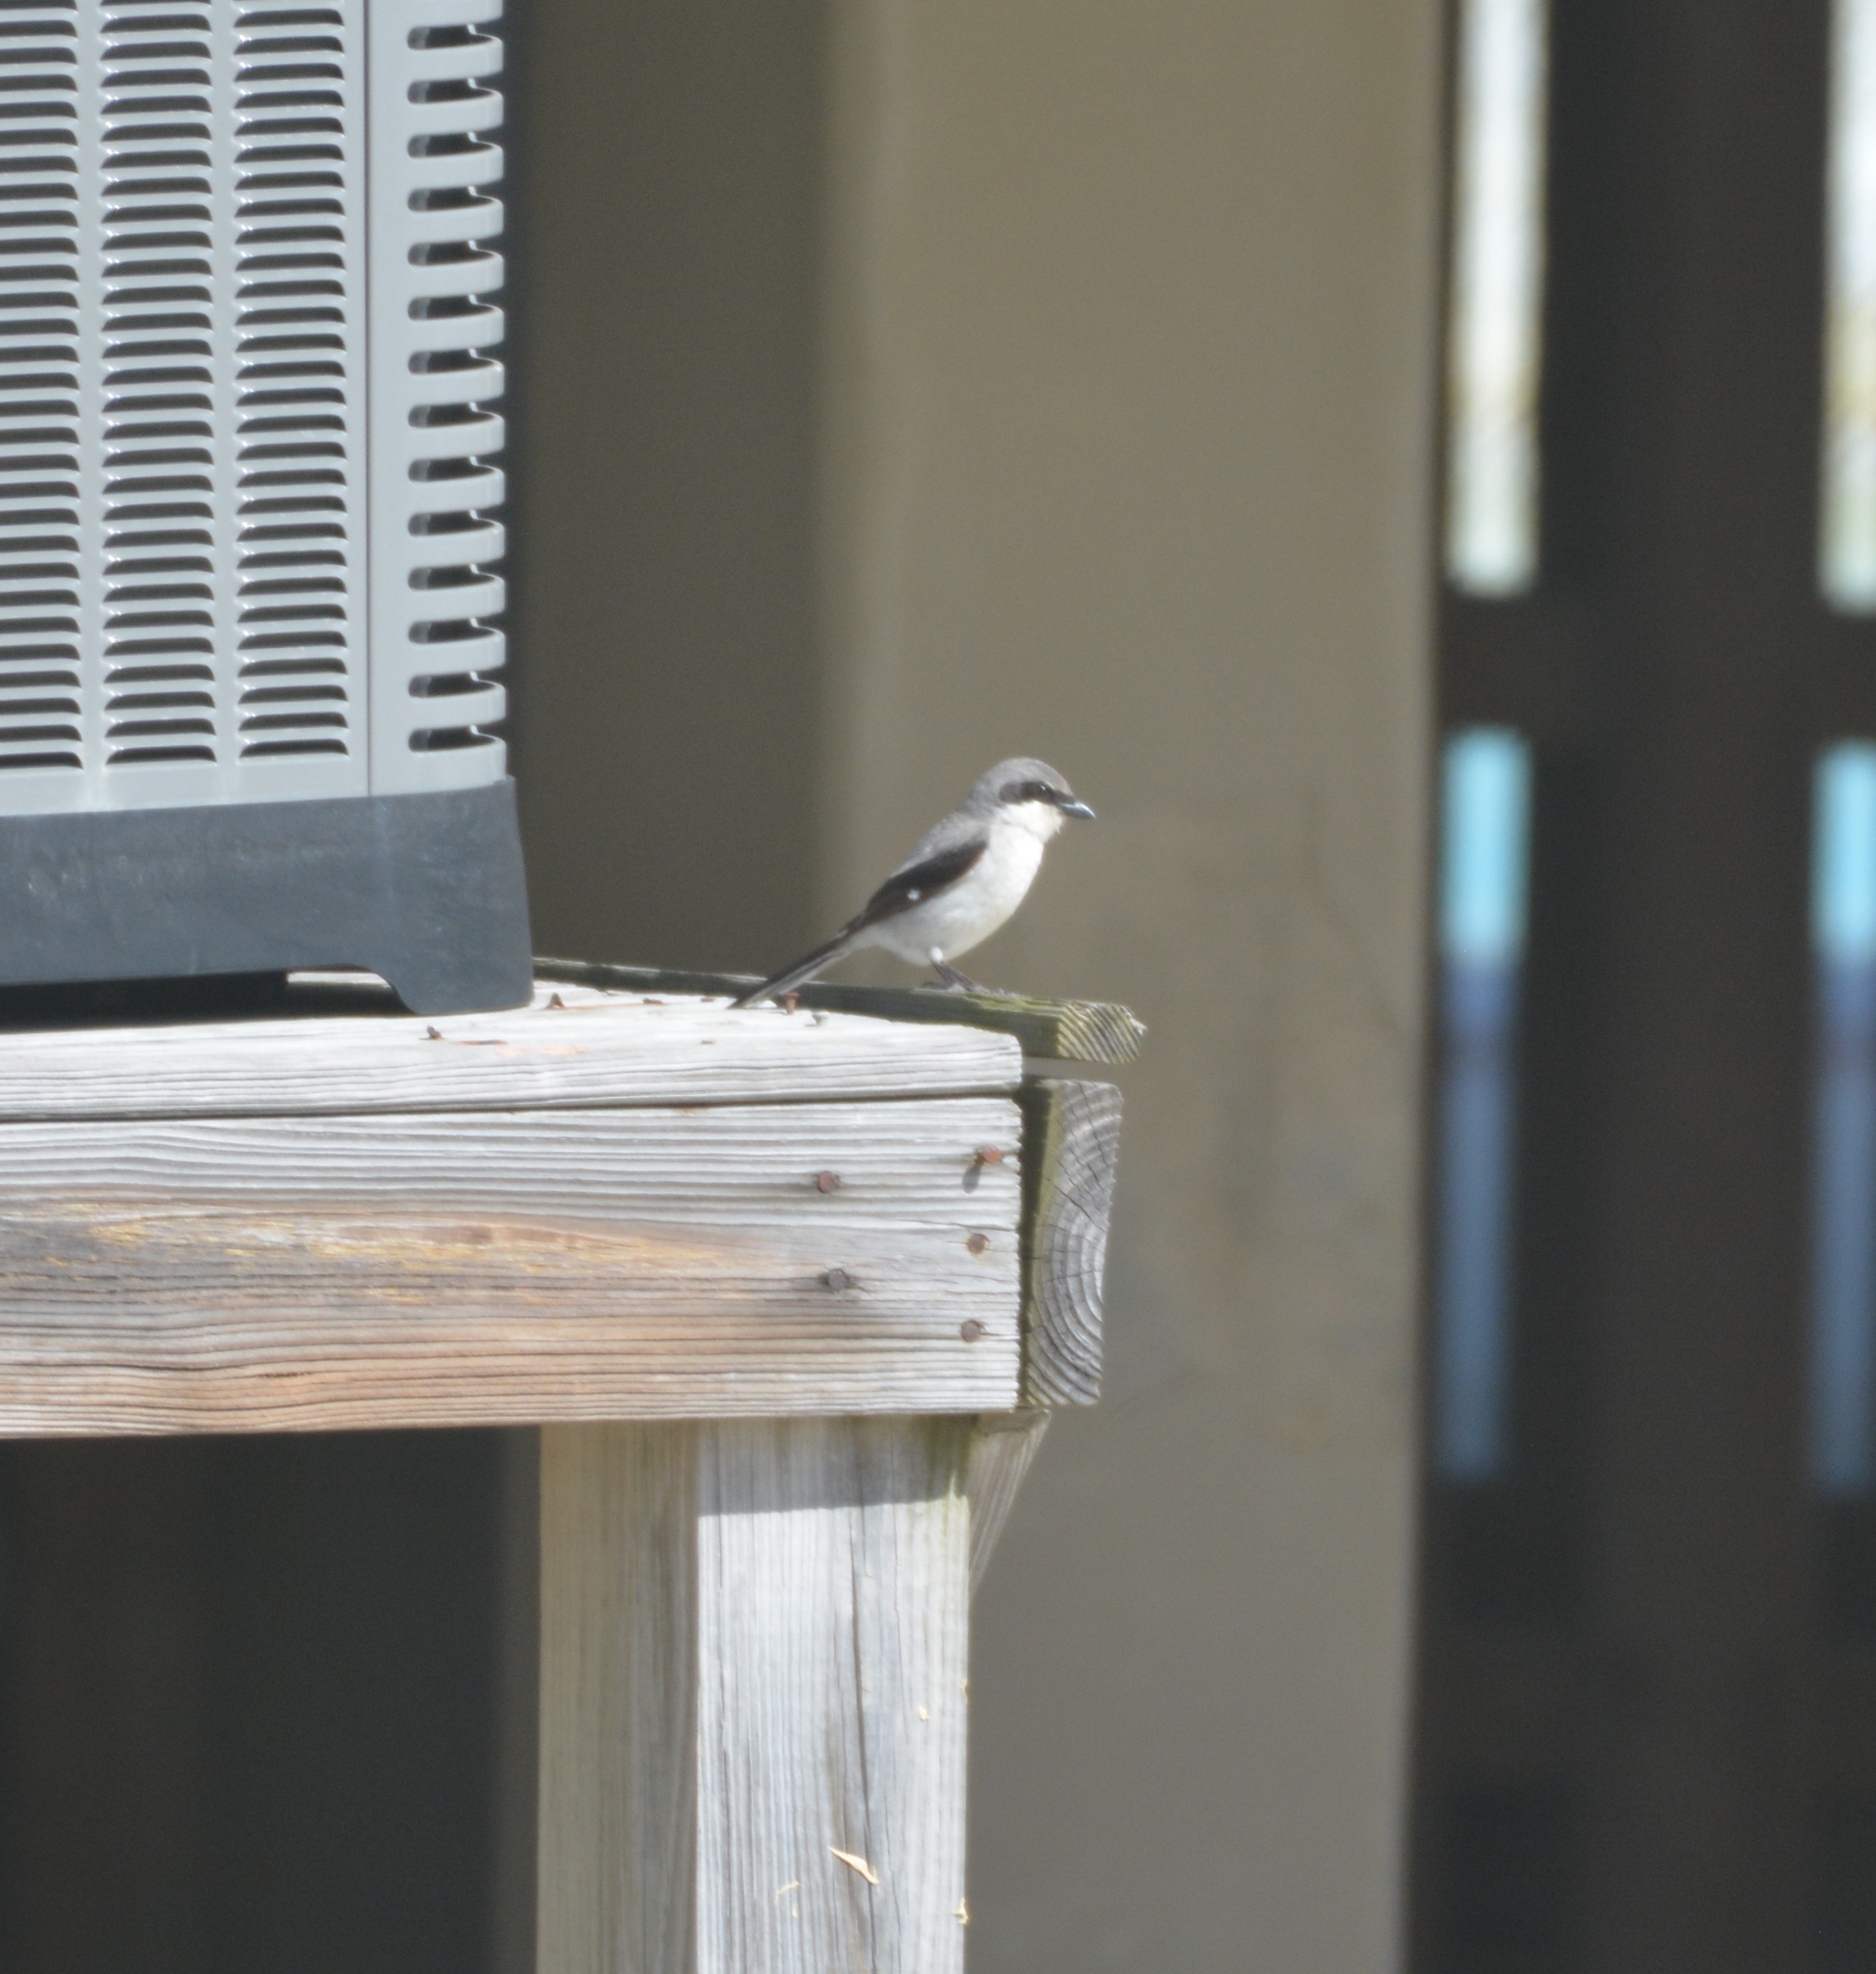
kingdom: Animalia
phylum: Chordata
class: Aves
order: Passeriformes
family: Laniidae
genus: Lanius
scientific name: Lanius ludovicianus
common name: Loggerhead shrike
